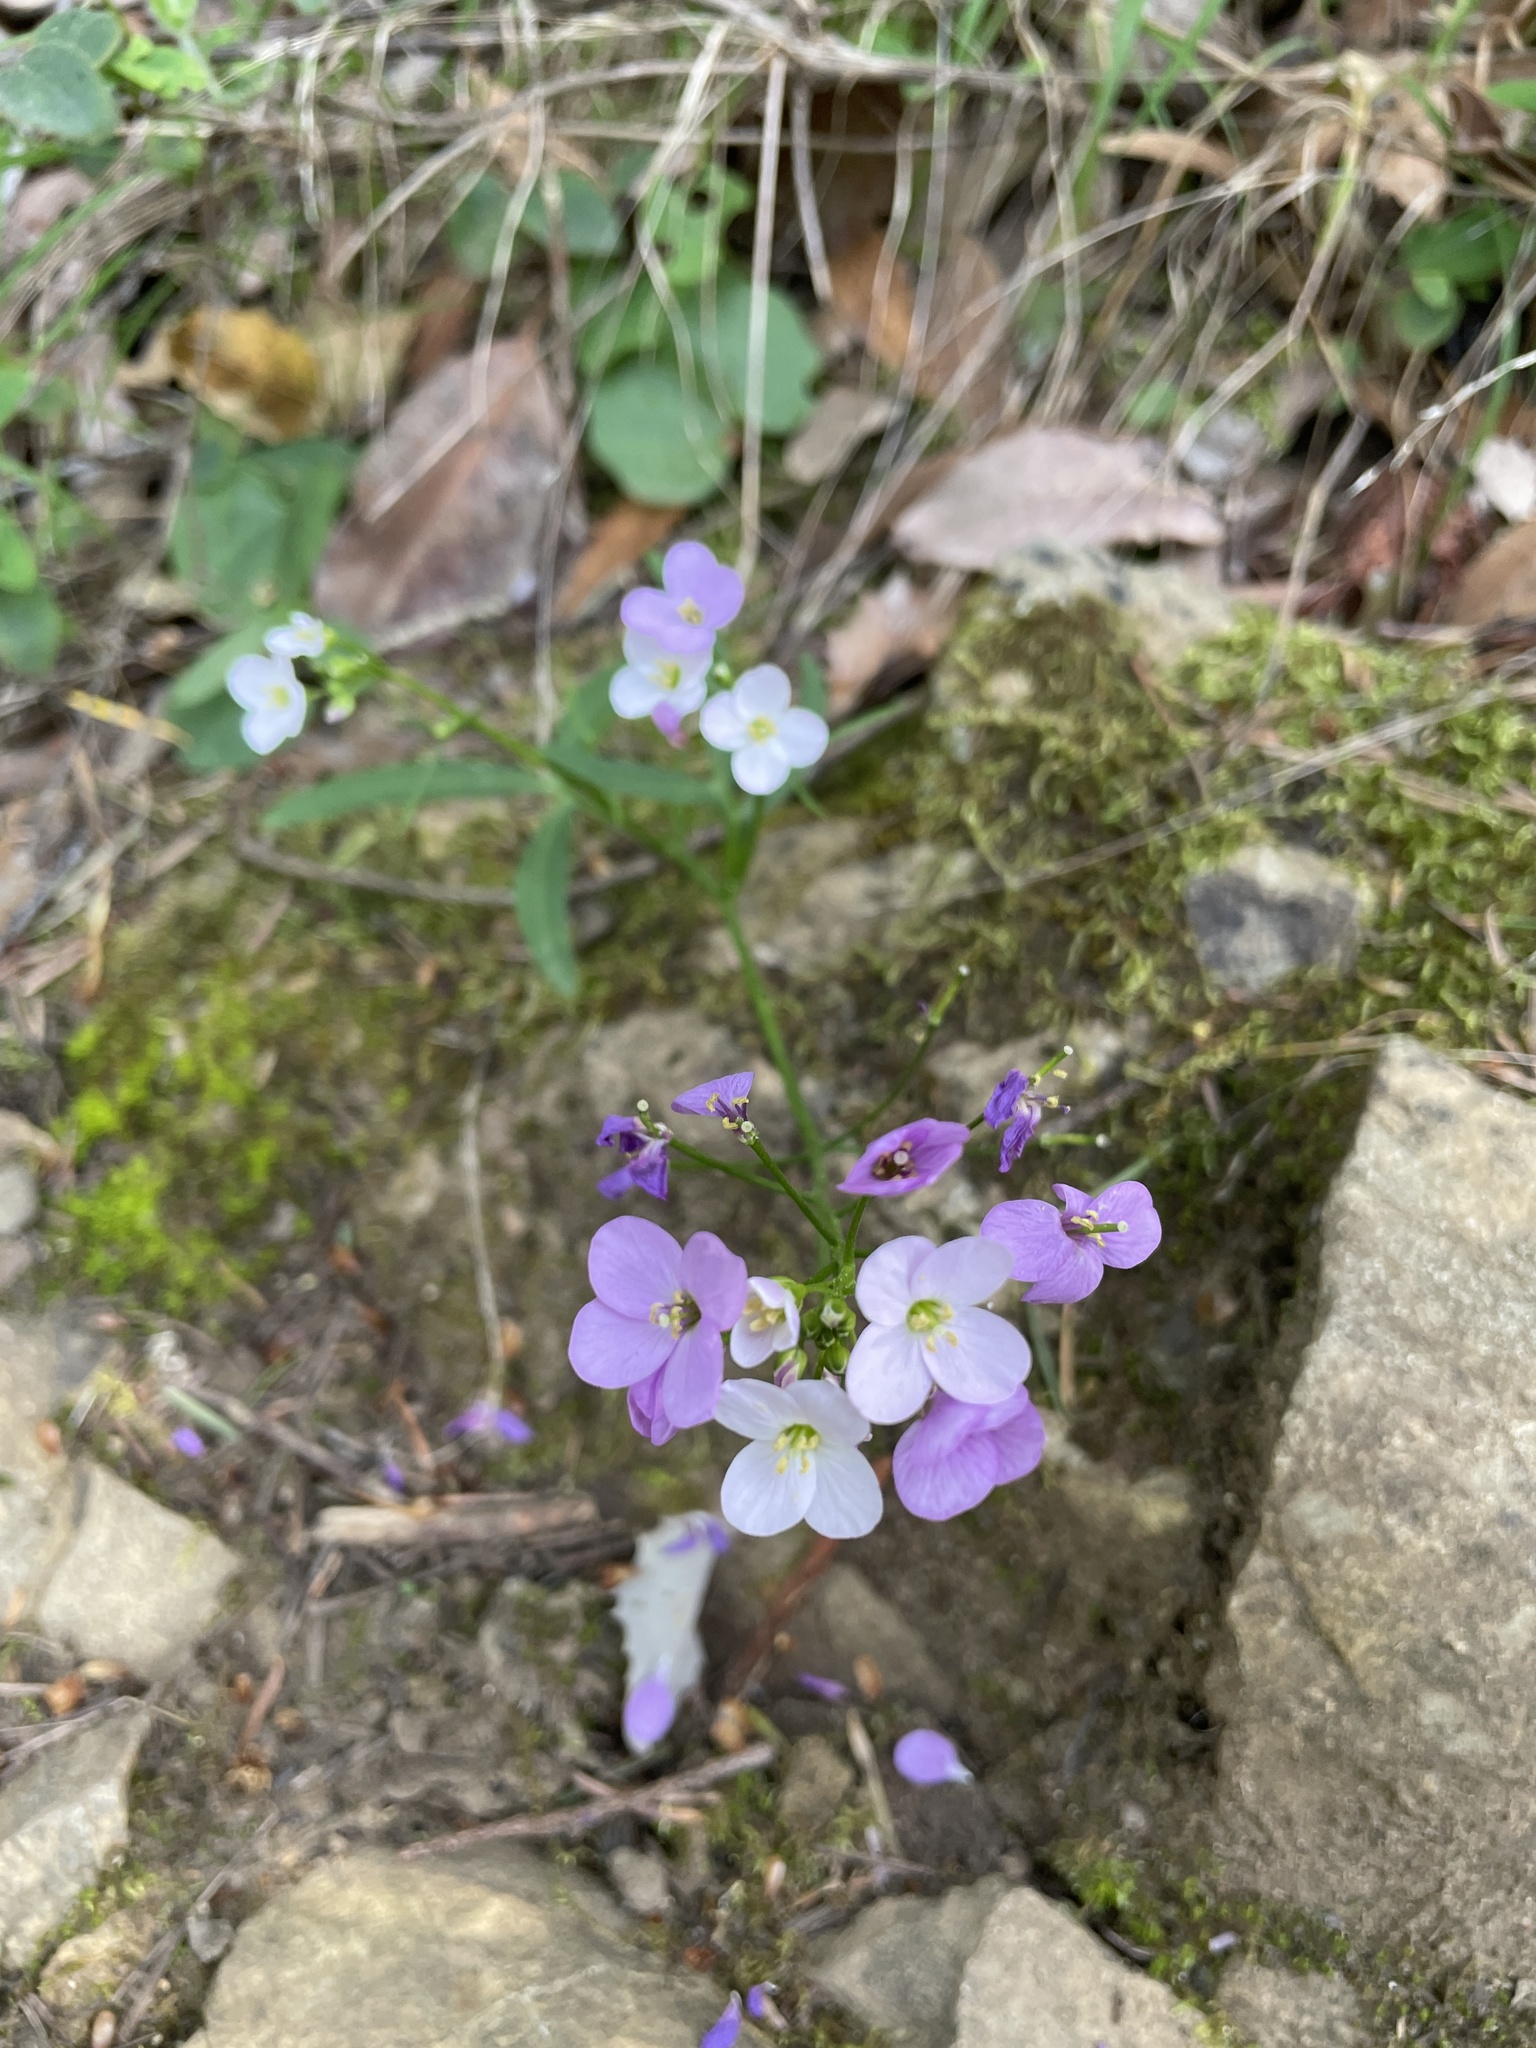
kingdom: Plantae
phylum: Tracheophyta
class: Magnoliopsida
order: Brassicales
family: Brassicaceae
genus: Cardamine
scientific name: Cardamine californica
